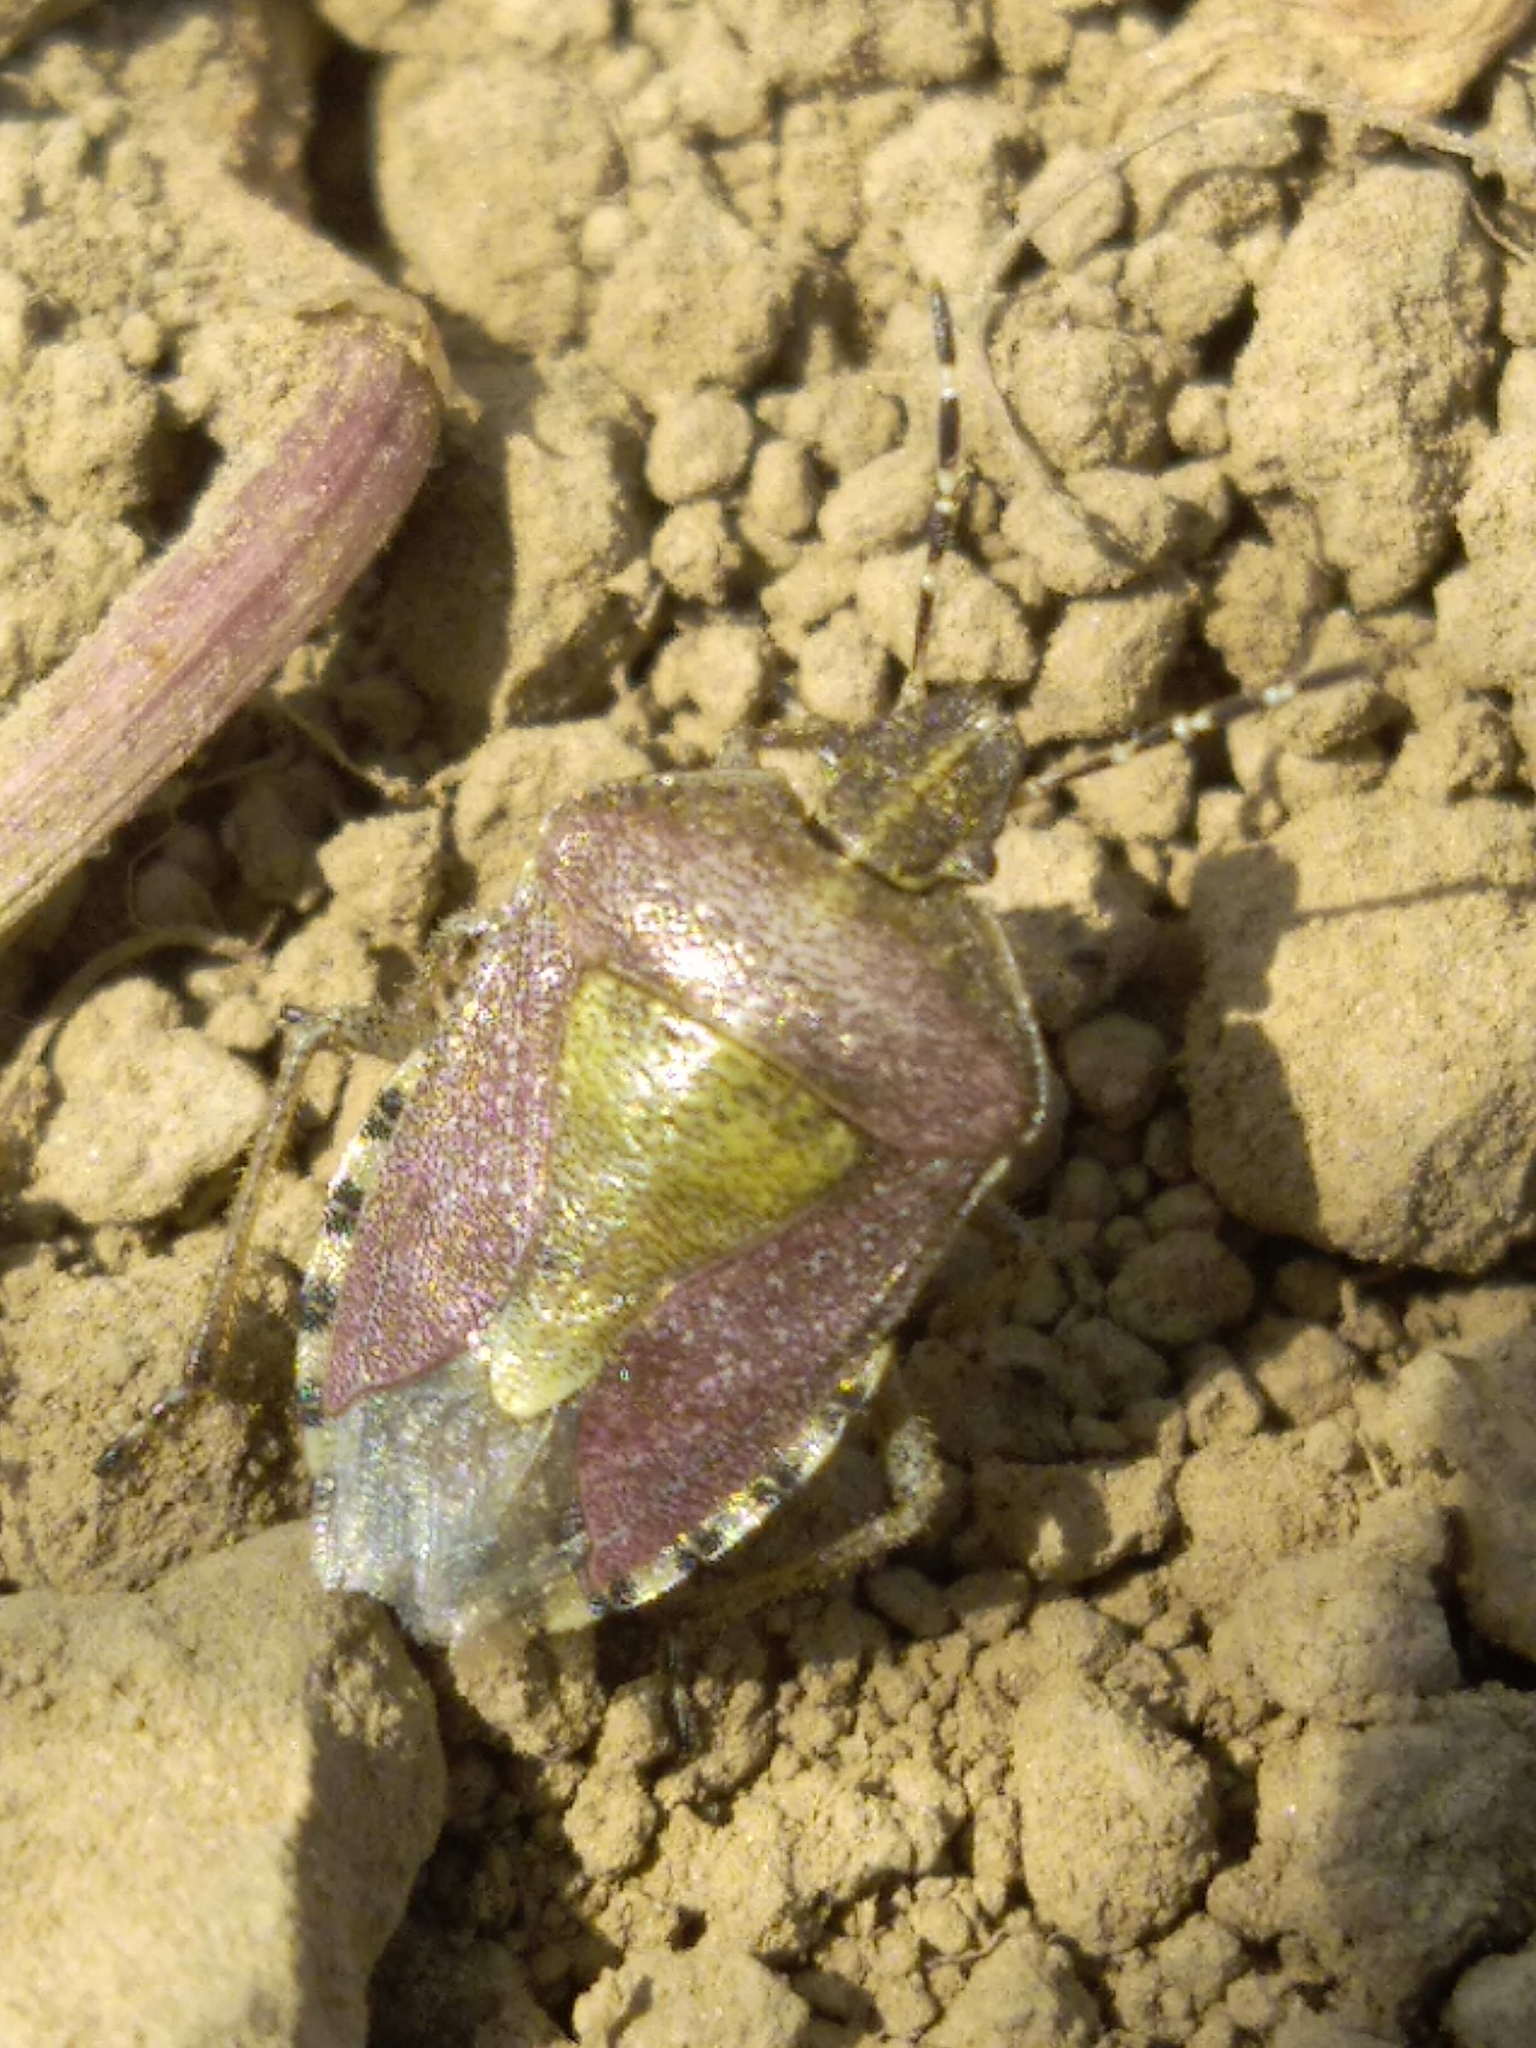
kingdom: Animalia
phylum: Arthropoda
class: Insecta
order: Hemiptera
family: Pentatomidae
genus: Dolycoris
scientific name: Dolycoris baccarum
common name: Sloe bug
